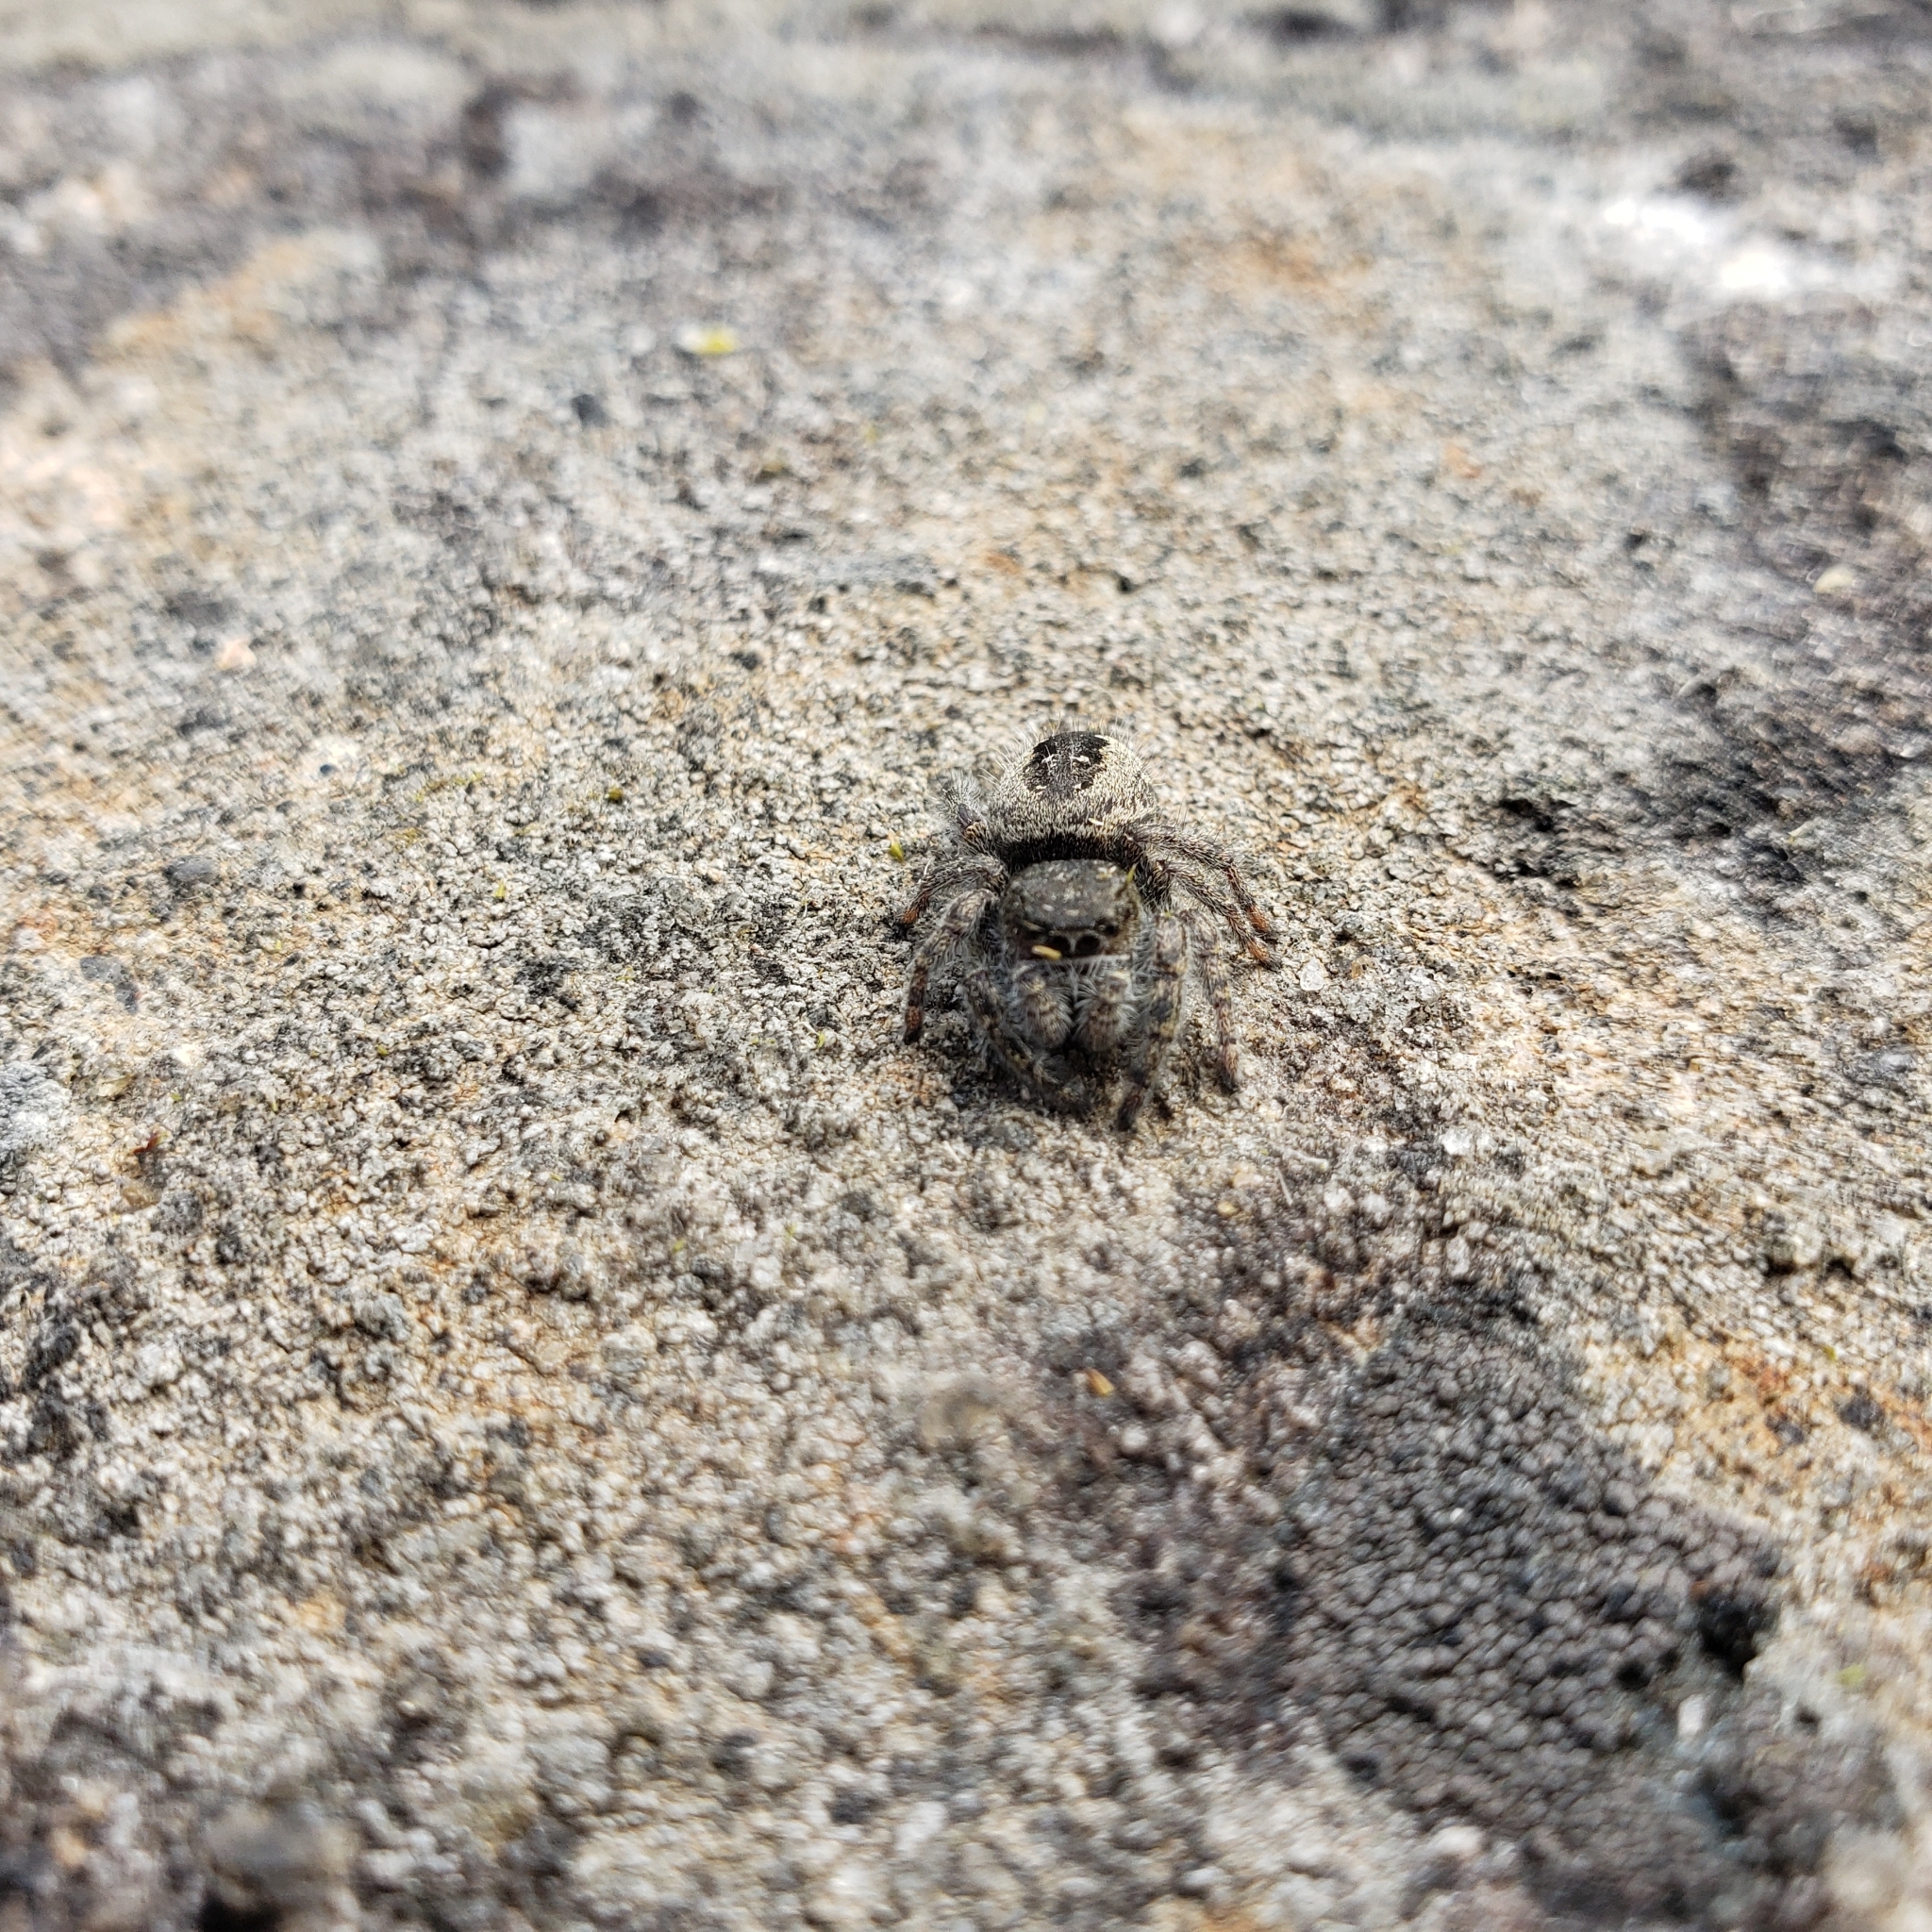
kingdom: Animalia
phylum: Arthropoda
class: Arachnida
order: Araneae
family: Salticidae
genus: Phidippus
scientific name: Phidippus purpuratus
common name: Marbled purple jumping spider
